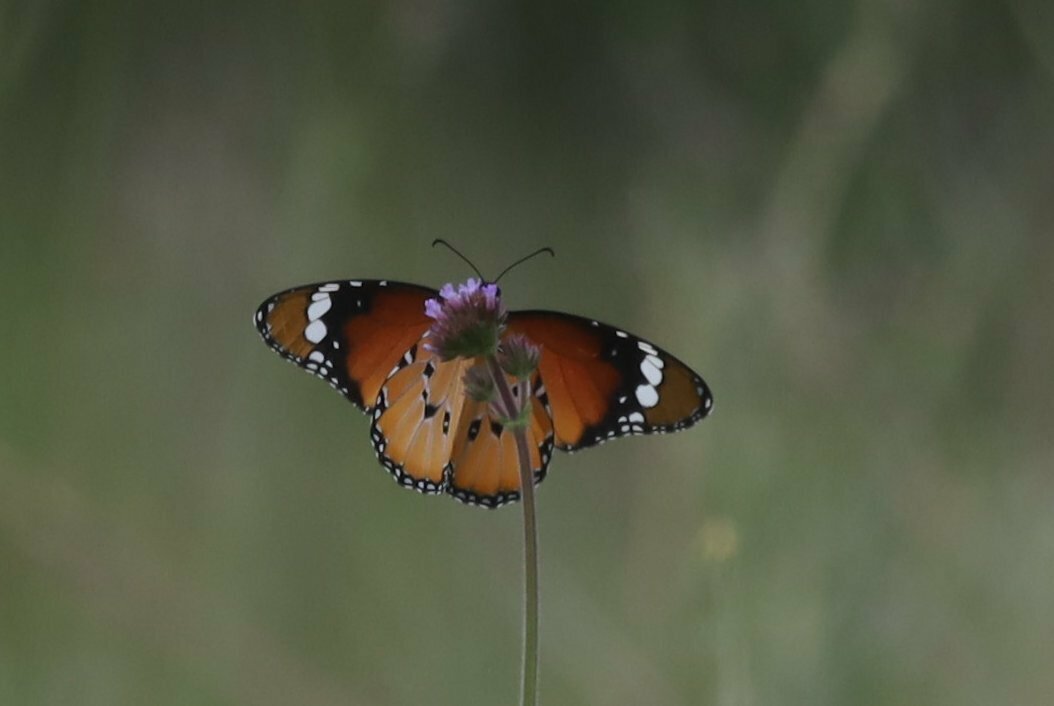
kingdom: Animalia
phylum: Arthropoda
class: Insecta
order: Lepidoptera
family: Nymphalidae
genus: Danaus
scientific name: Danaus chrysippus
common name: Plain tiger
